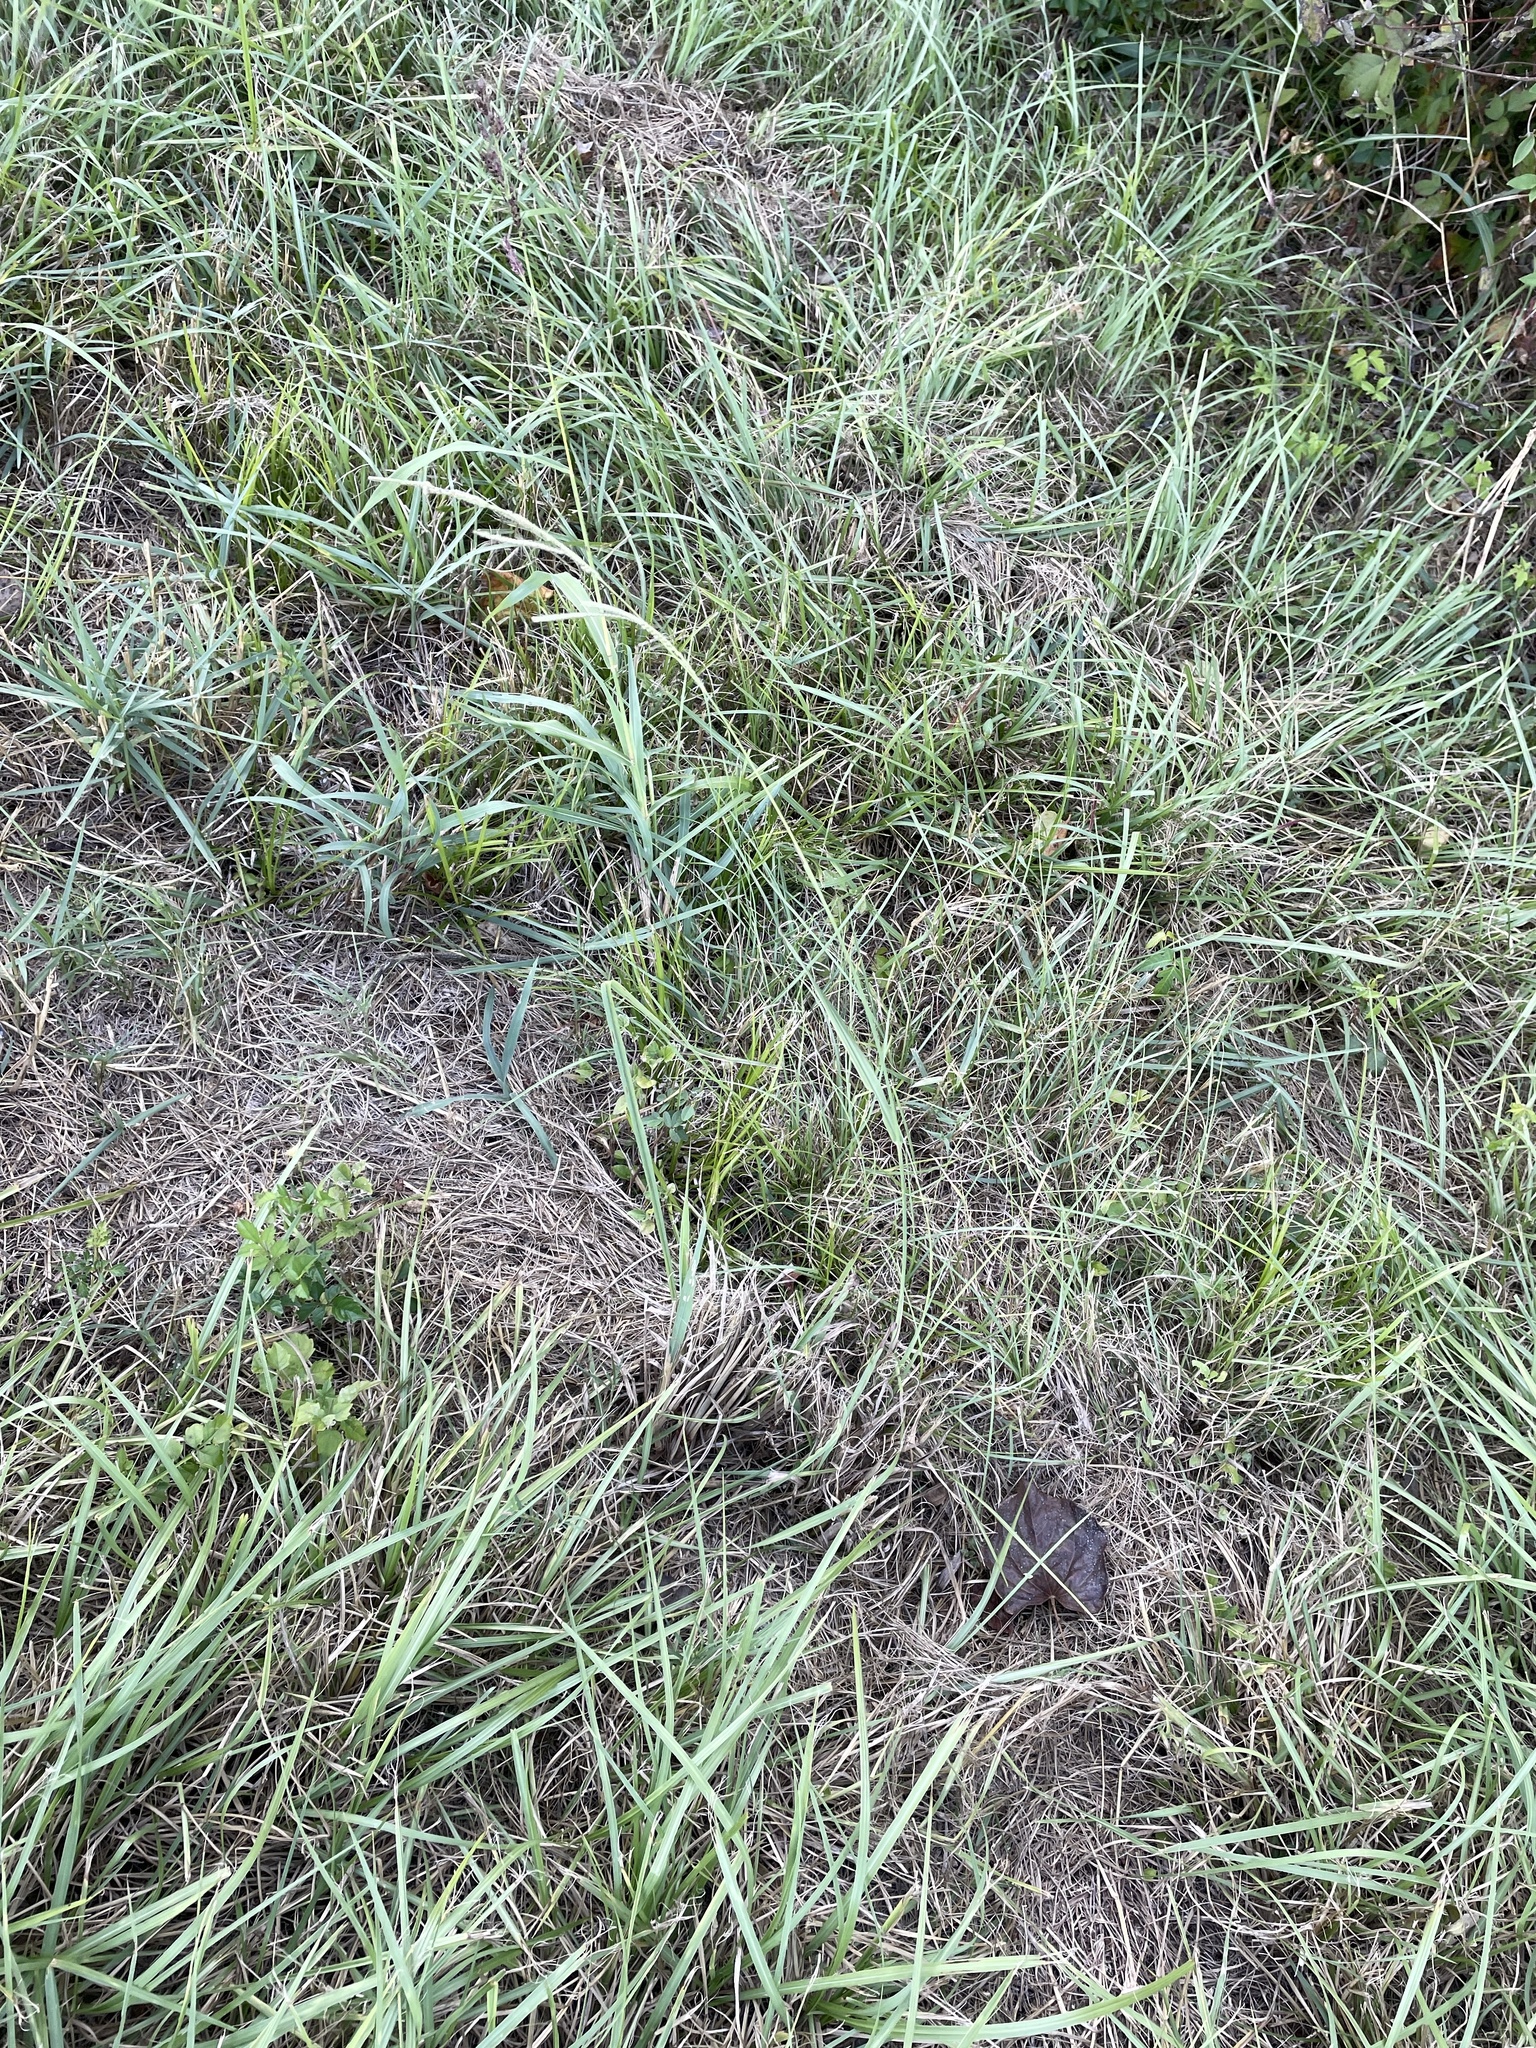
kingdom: Plantae
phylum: Tracheophyta
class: Liliopsida
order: Poales
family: Poaceae
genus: Paspalum
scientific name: Paspalum urvillei
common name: Vasey's grass
